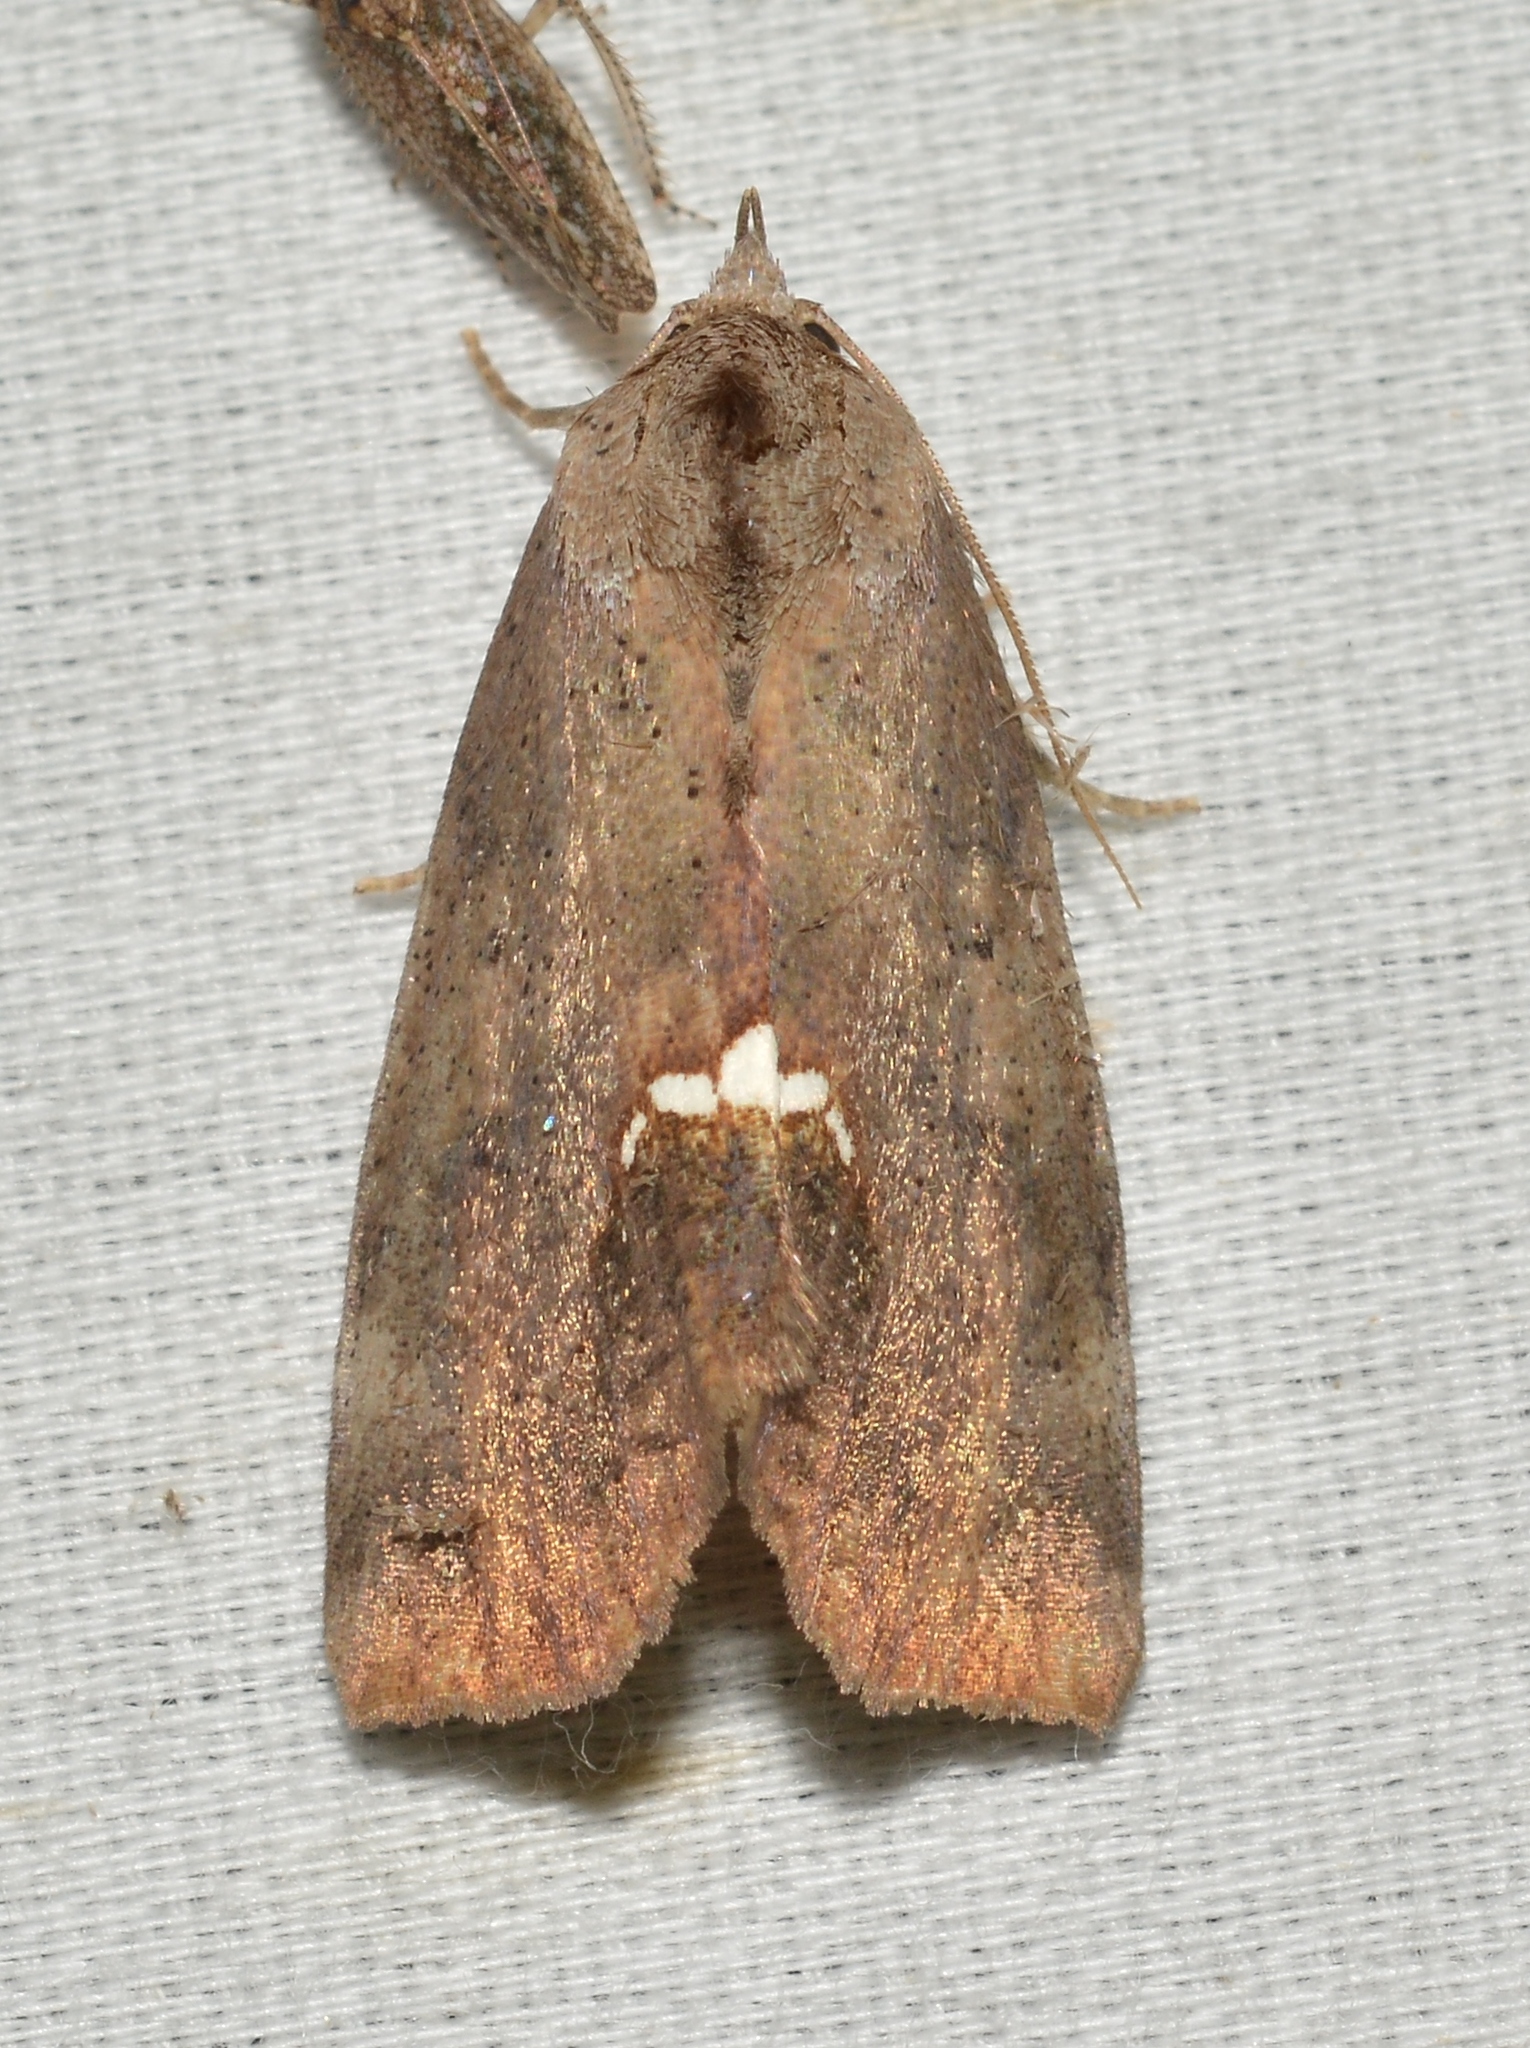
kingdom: Animalia
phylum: Arthropoda
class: Insecta
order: Lepidoptera
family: Erebidae
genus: Hypsoropha
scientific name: Hypsoropha hormos
